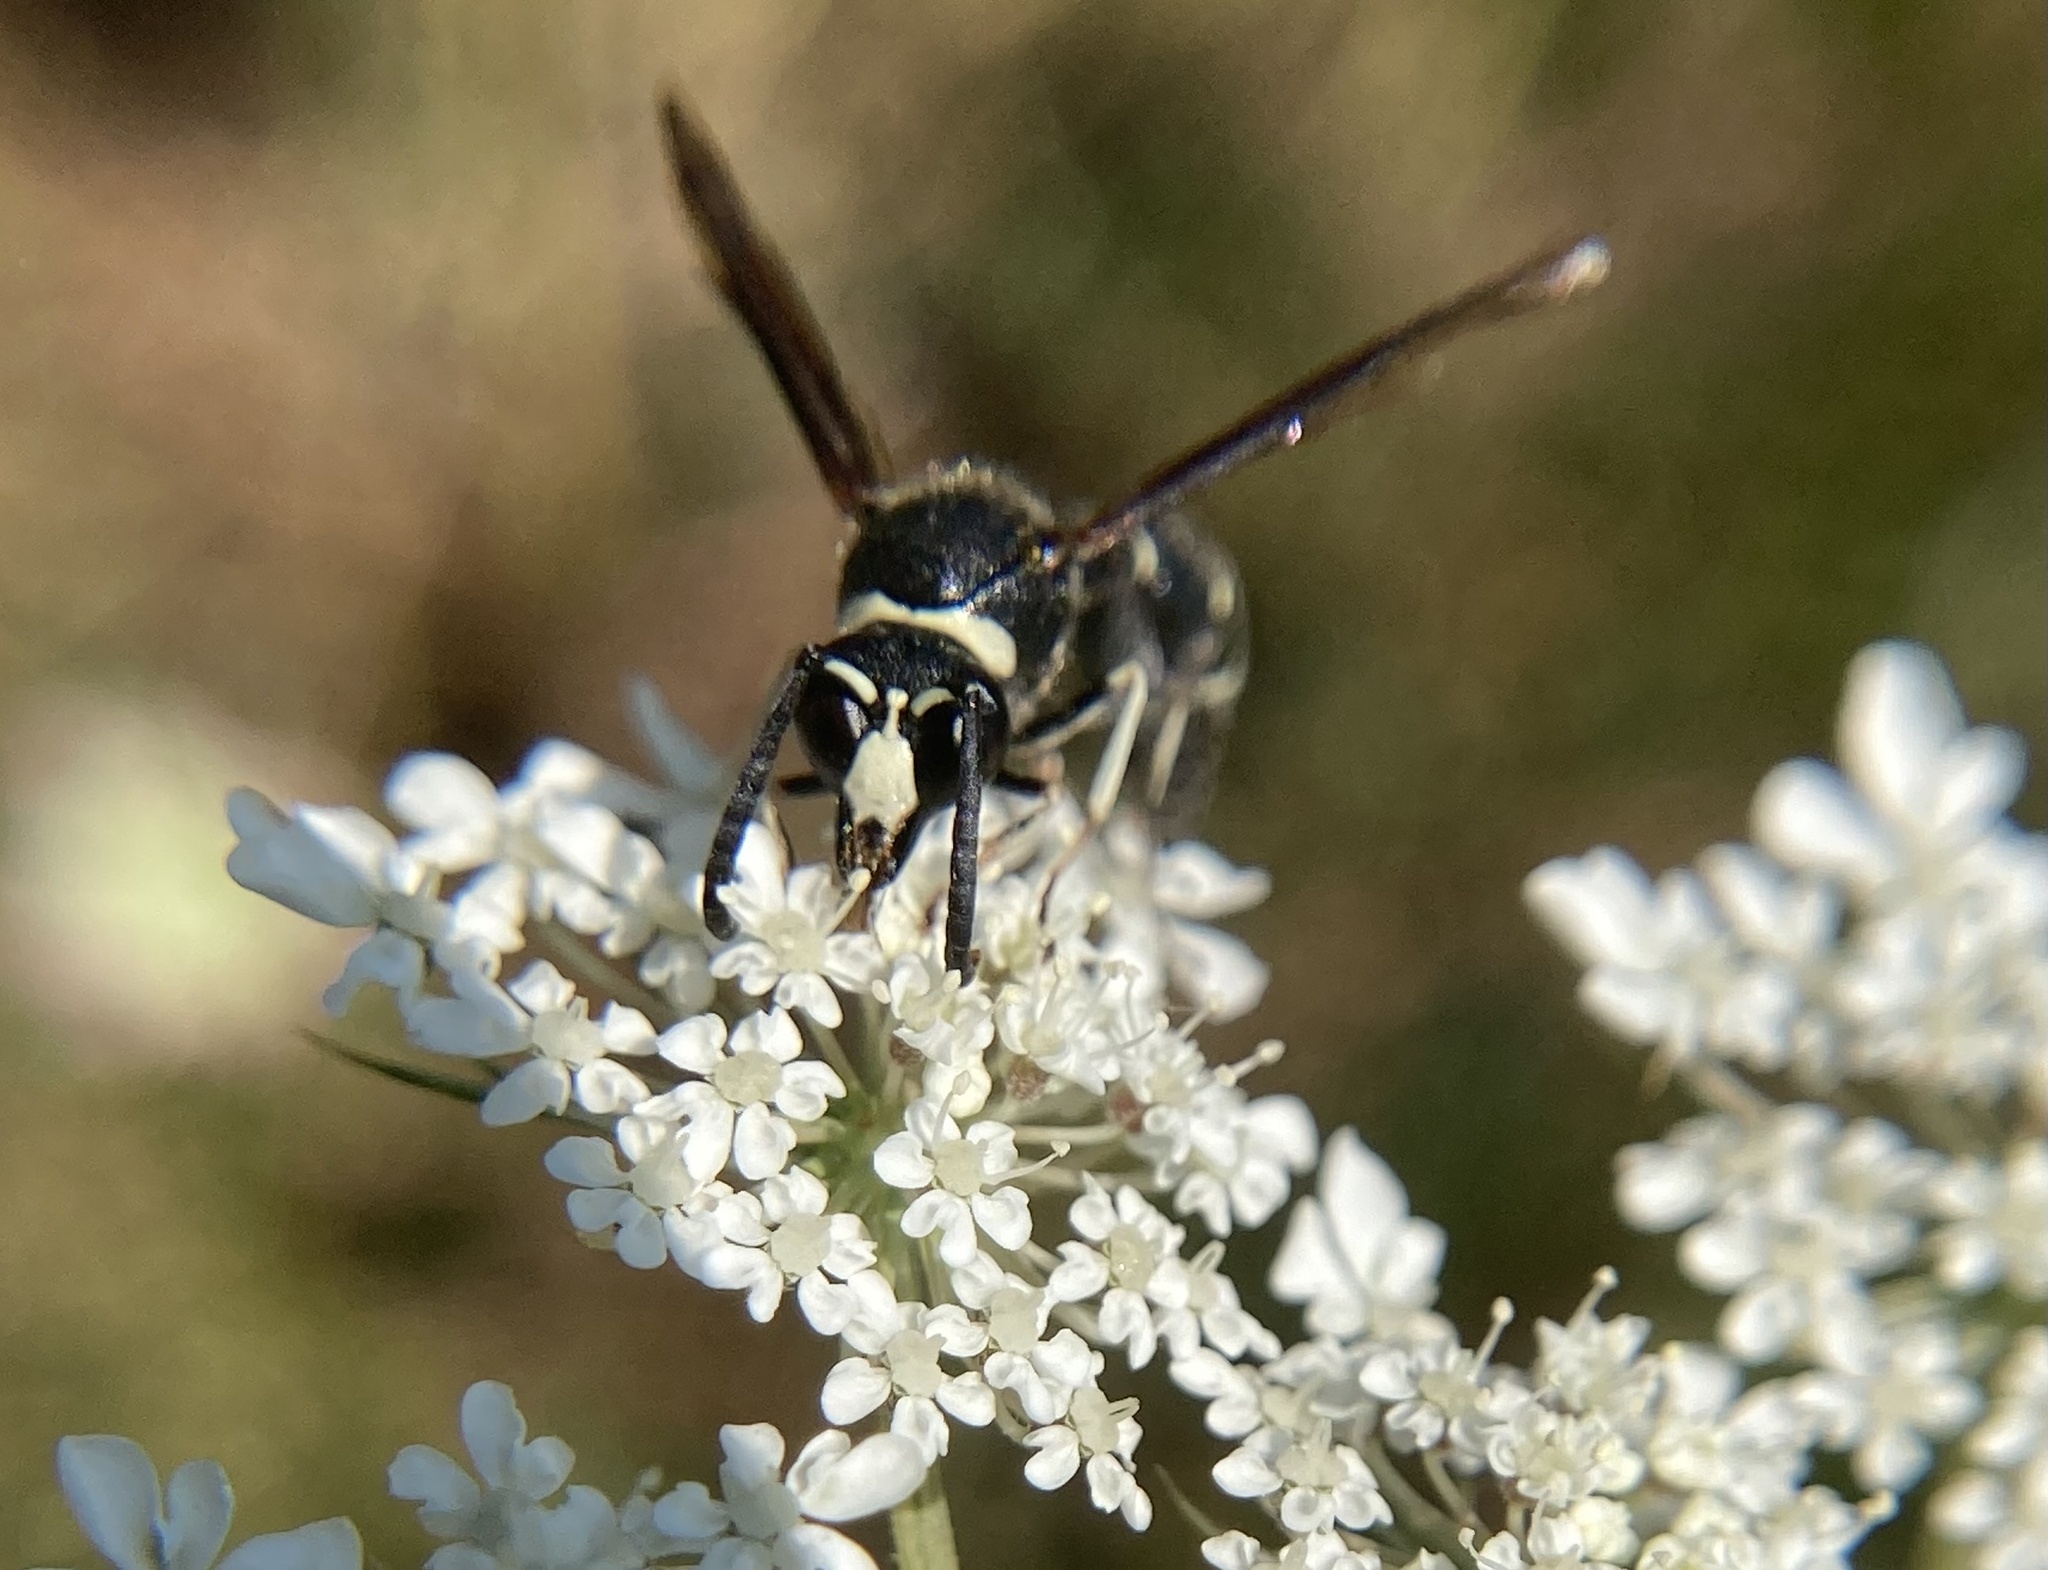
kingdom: Animalia
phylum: Arthropoda
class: Insecta
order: Hymenoptera
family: Vespidae
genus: Eumenes
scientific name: Eumenes fraternus
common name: Fraternal potter wasp
